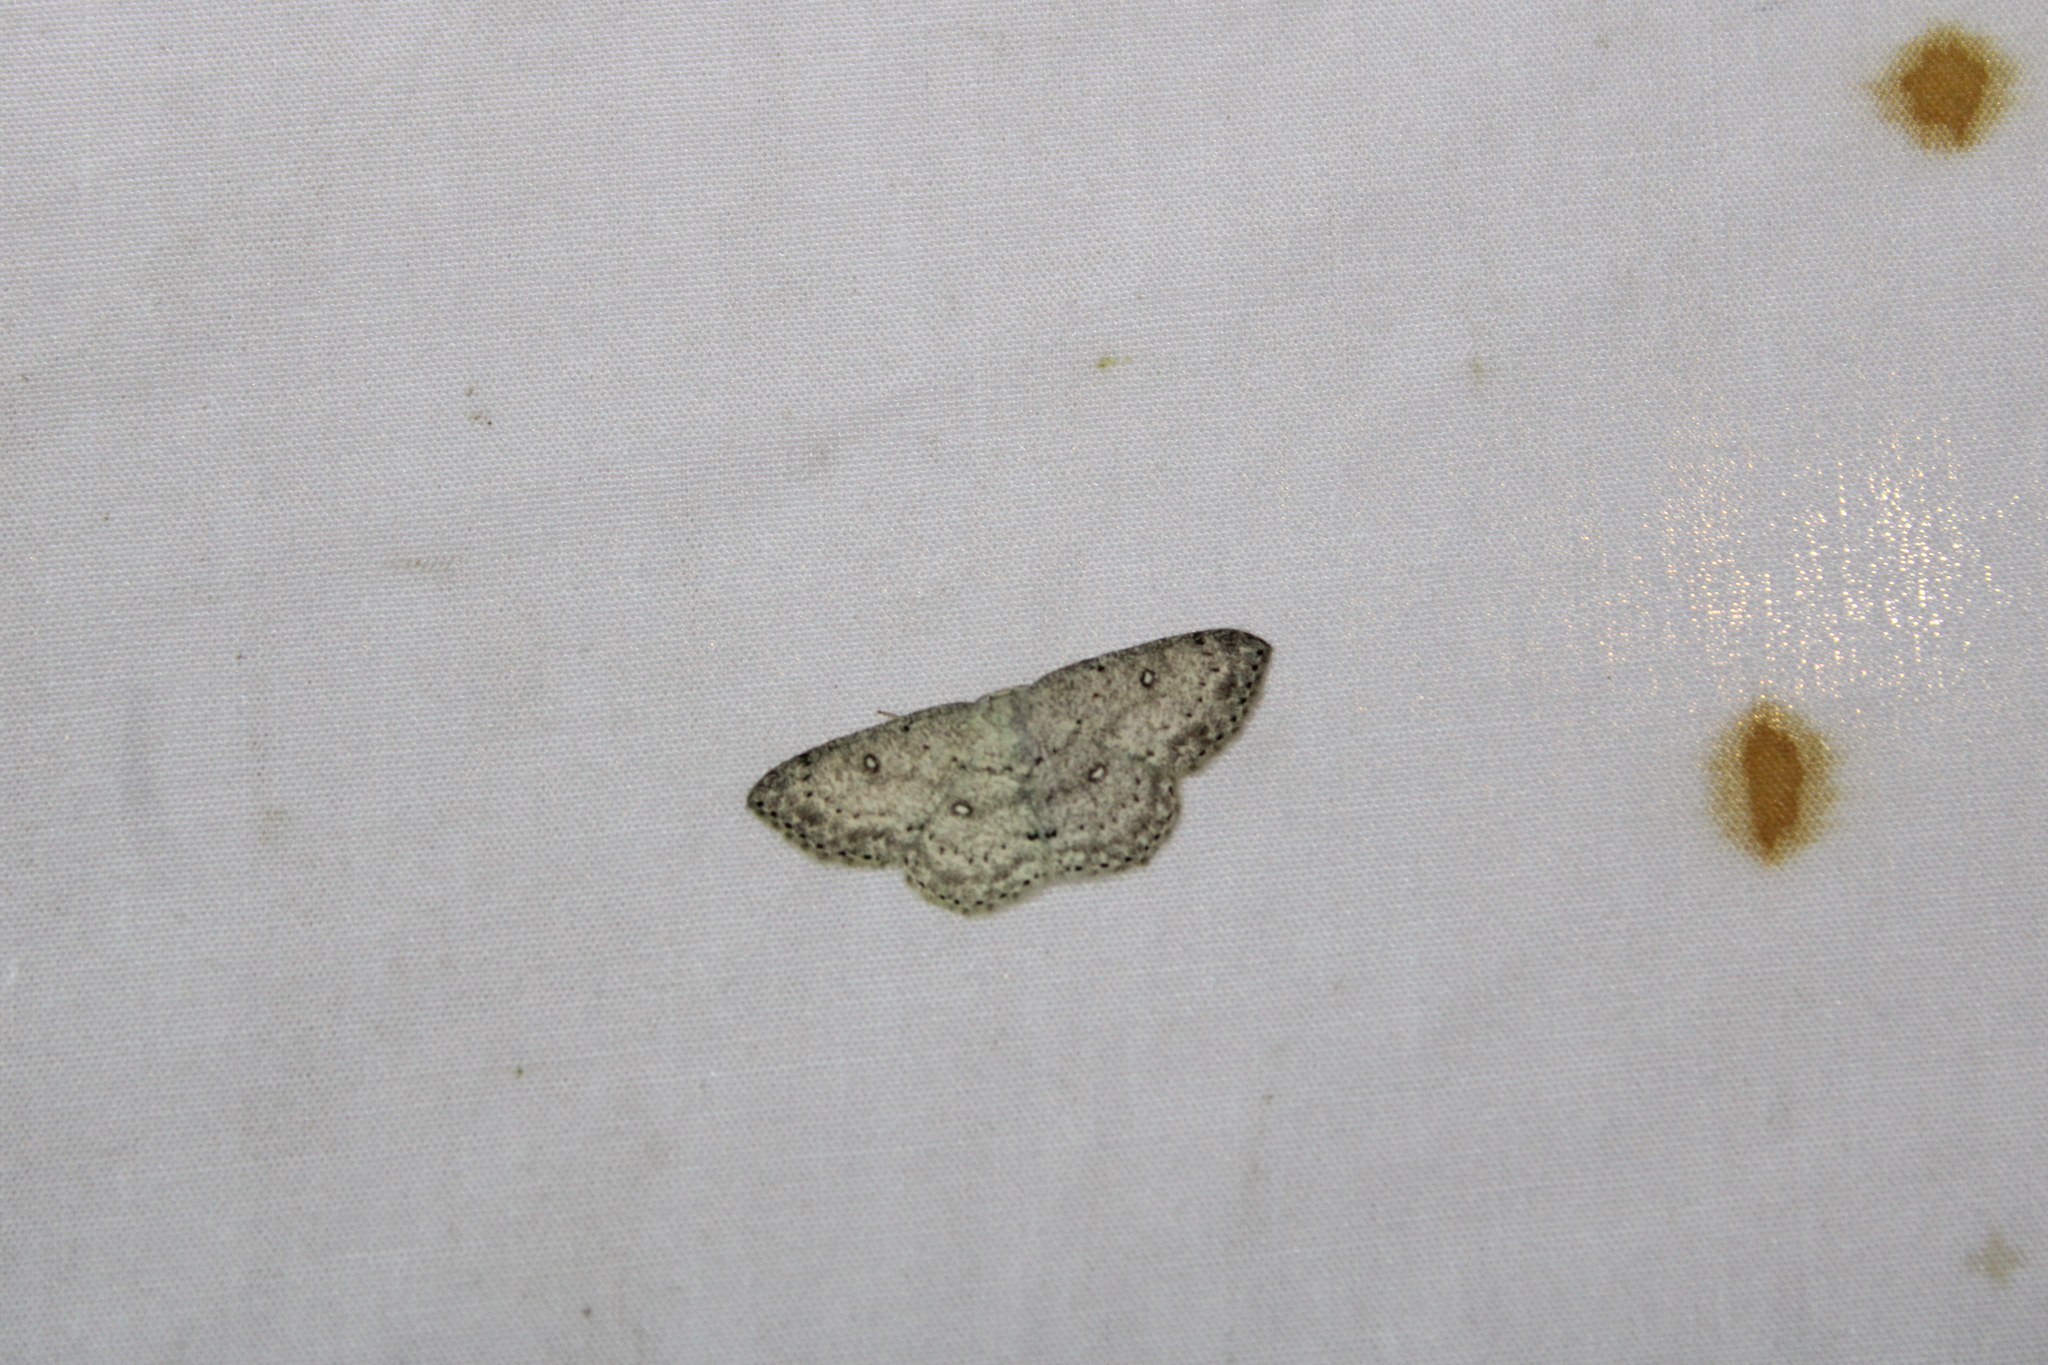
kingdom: Animalia
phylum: Arthropoda
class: Insecta
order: Lepidoptera
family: Geometridae
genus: Cyclophora
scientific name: Cyclophora pendulinaria
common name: Sweet fern geometer
